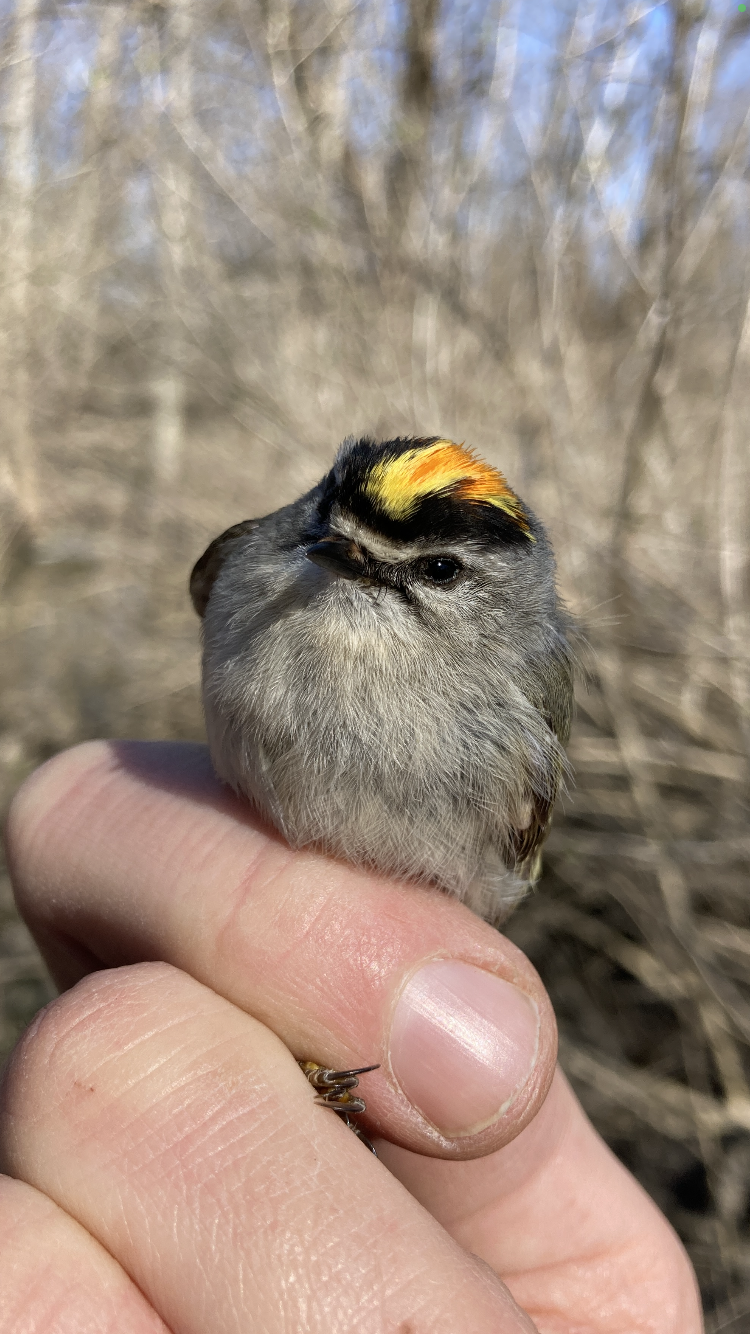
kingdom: Animalia
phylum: Chordata
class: Aves
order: Passeriformes
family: Regulidae
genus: Regulus
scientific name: Regulus satrapa
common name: Golden-crowned kinglet
